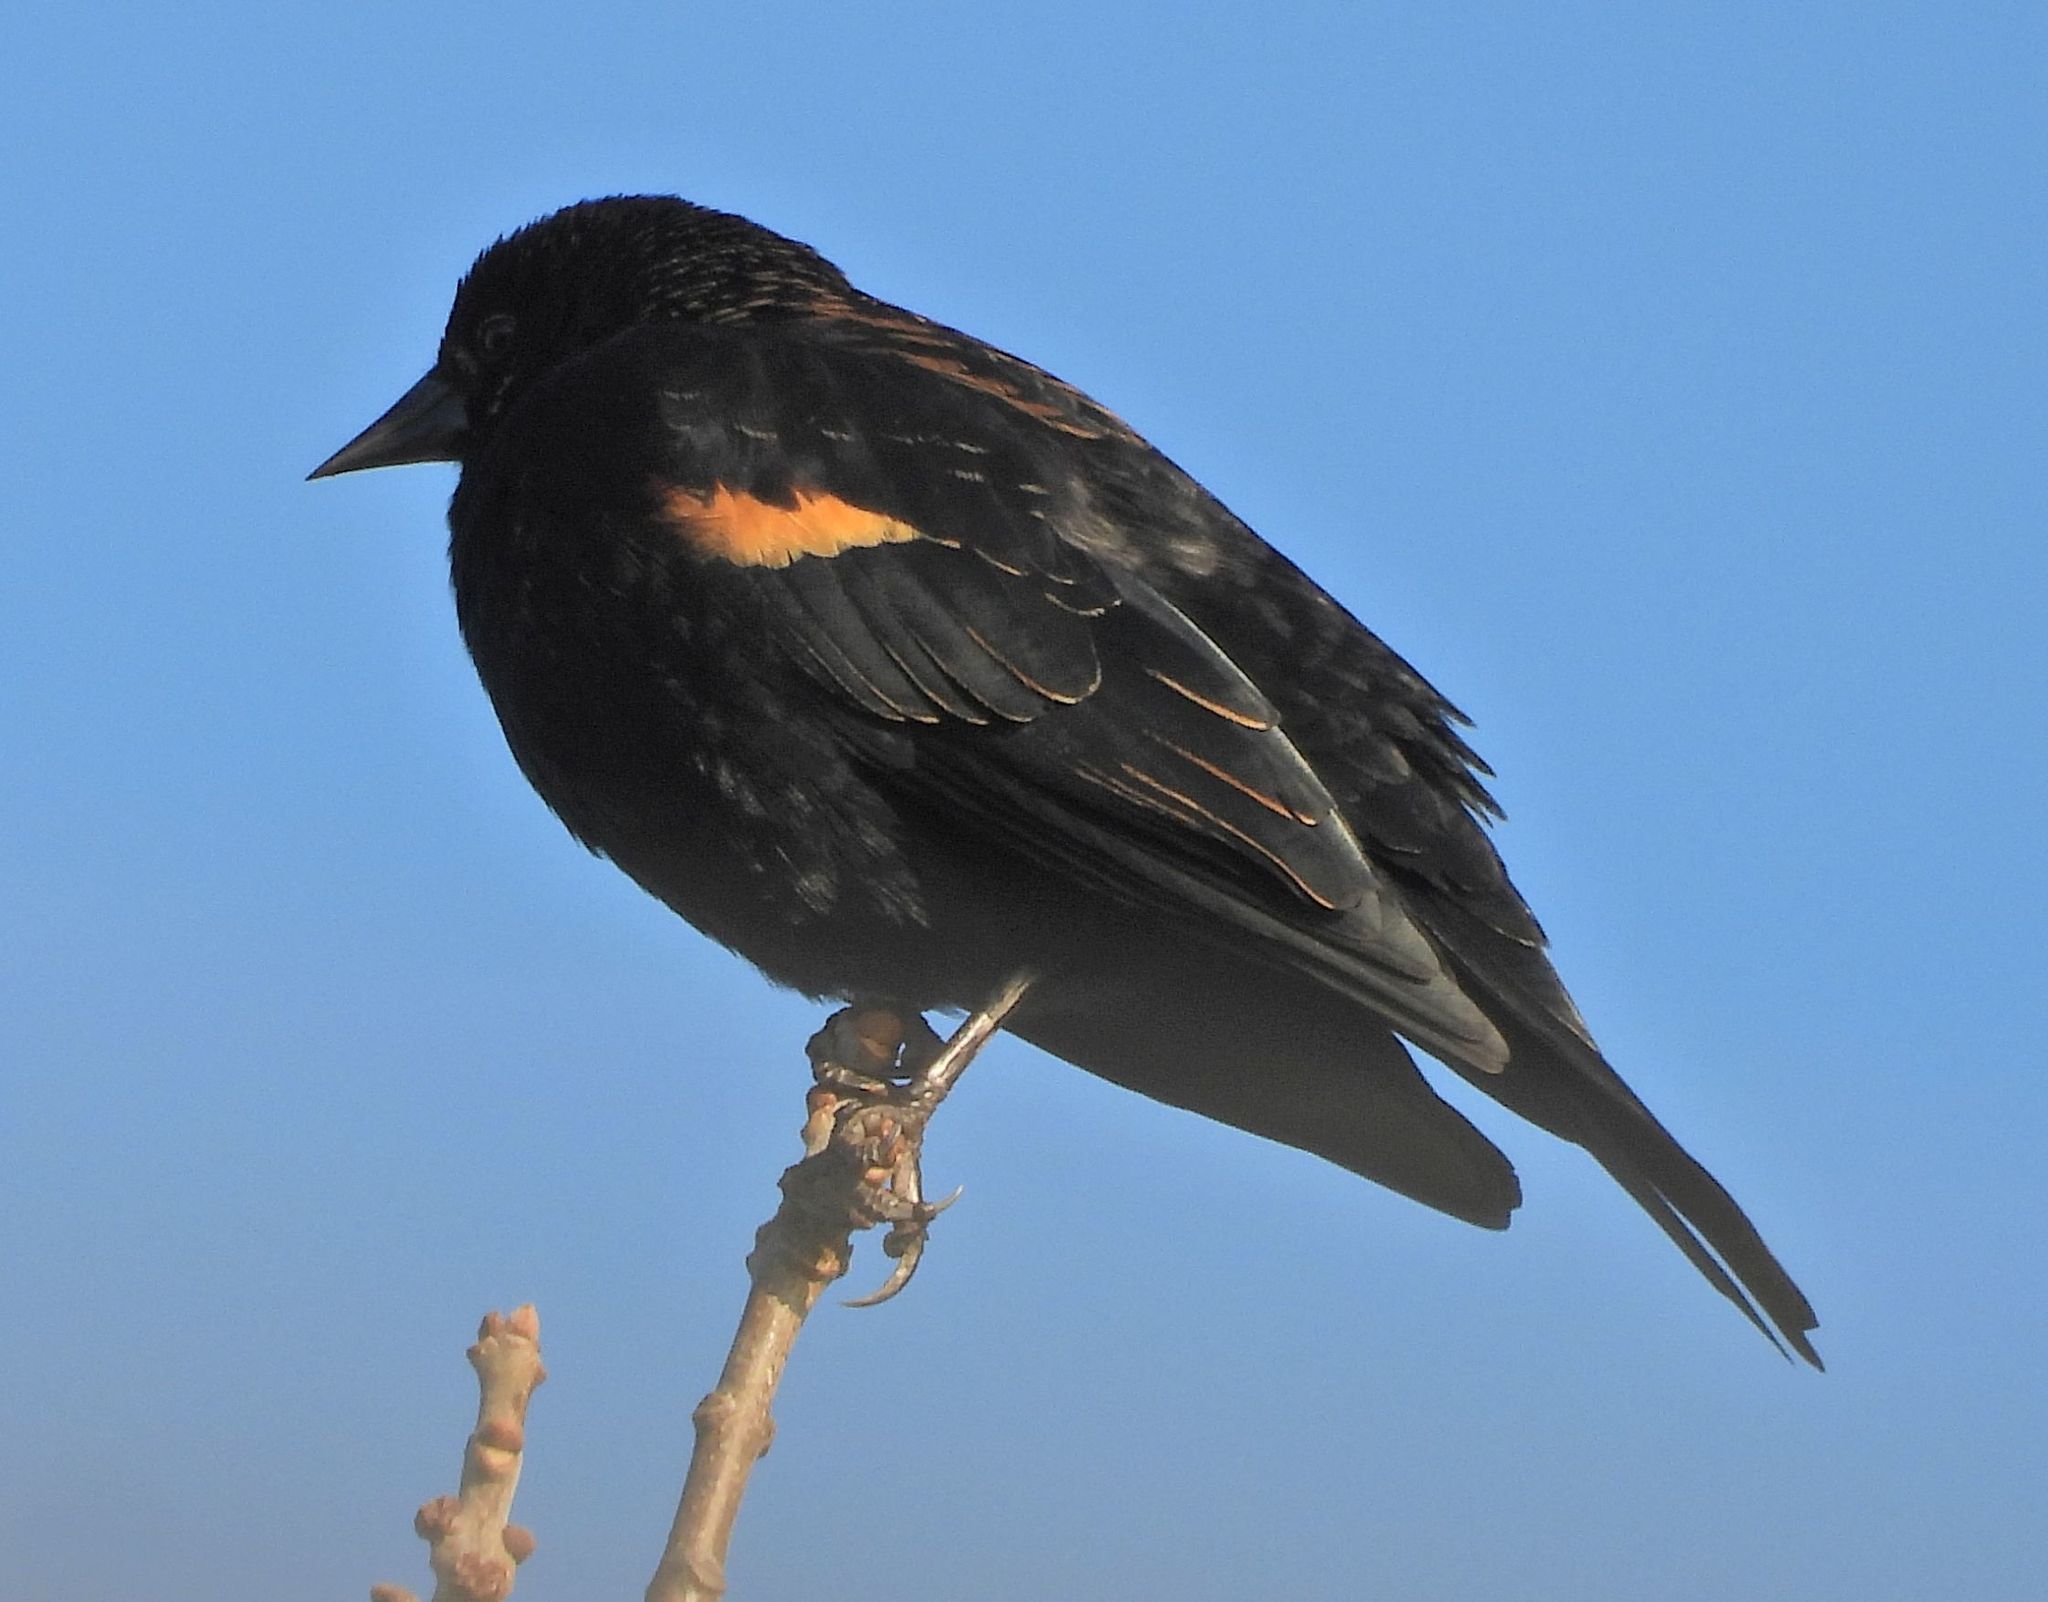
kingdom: Animalia
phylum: Chordata
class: Aves
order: Passeriformes
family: Icteridae
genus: Agelaius
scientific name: Agelaius phoeniceus
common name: Red-winged blackbird
